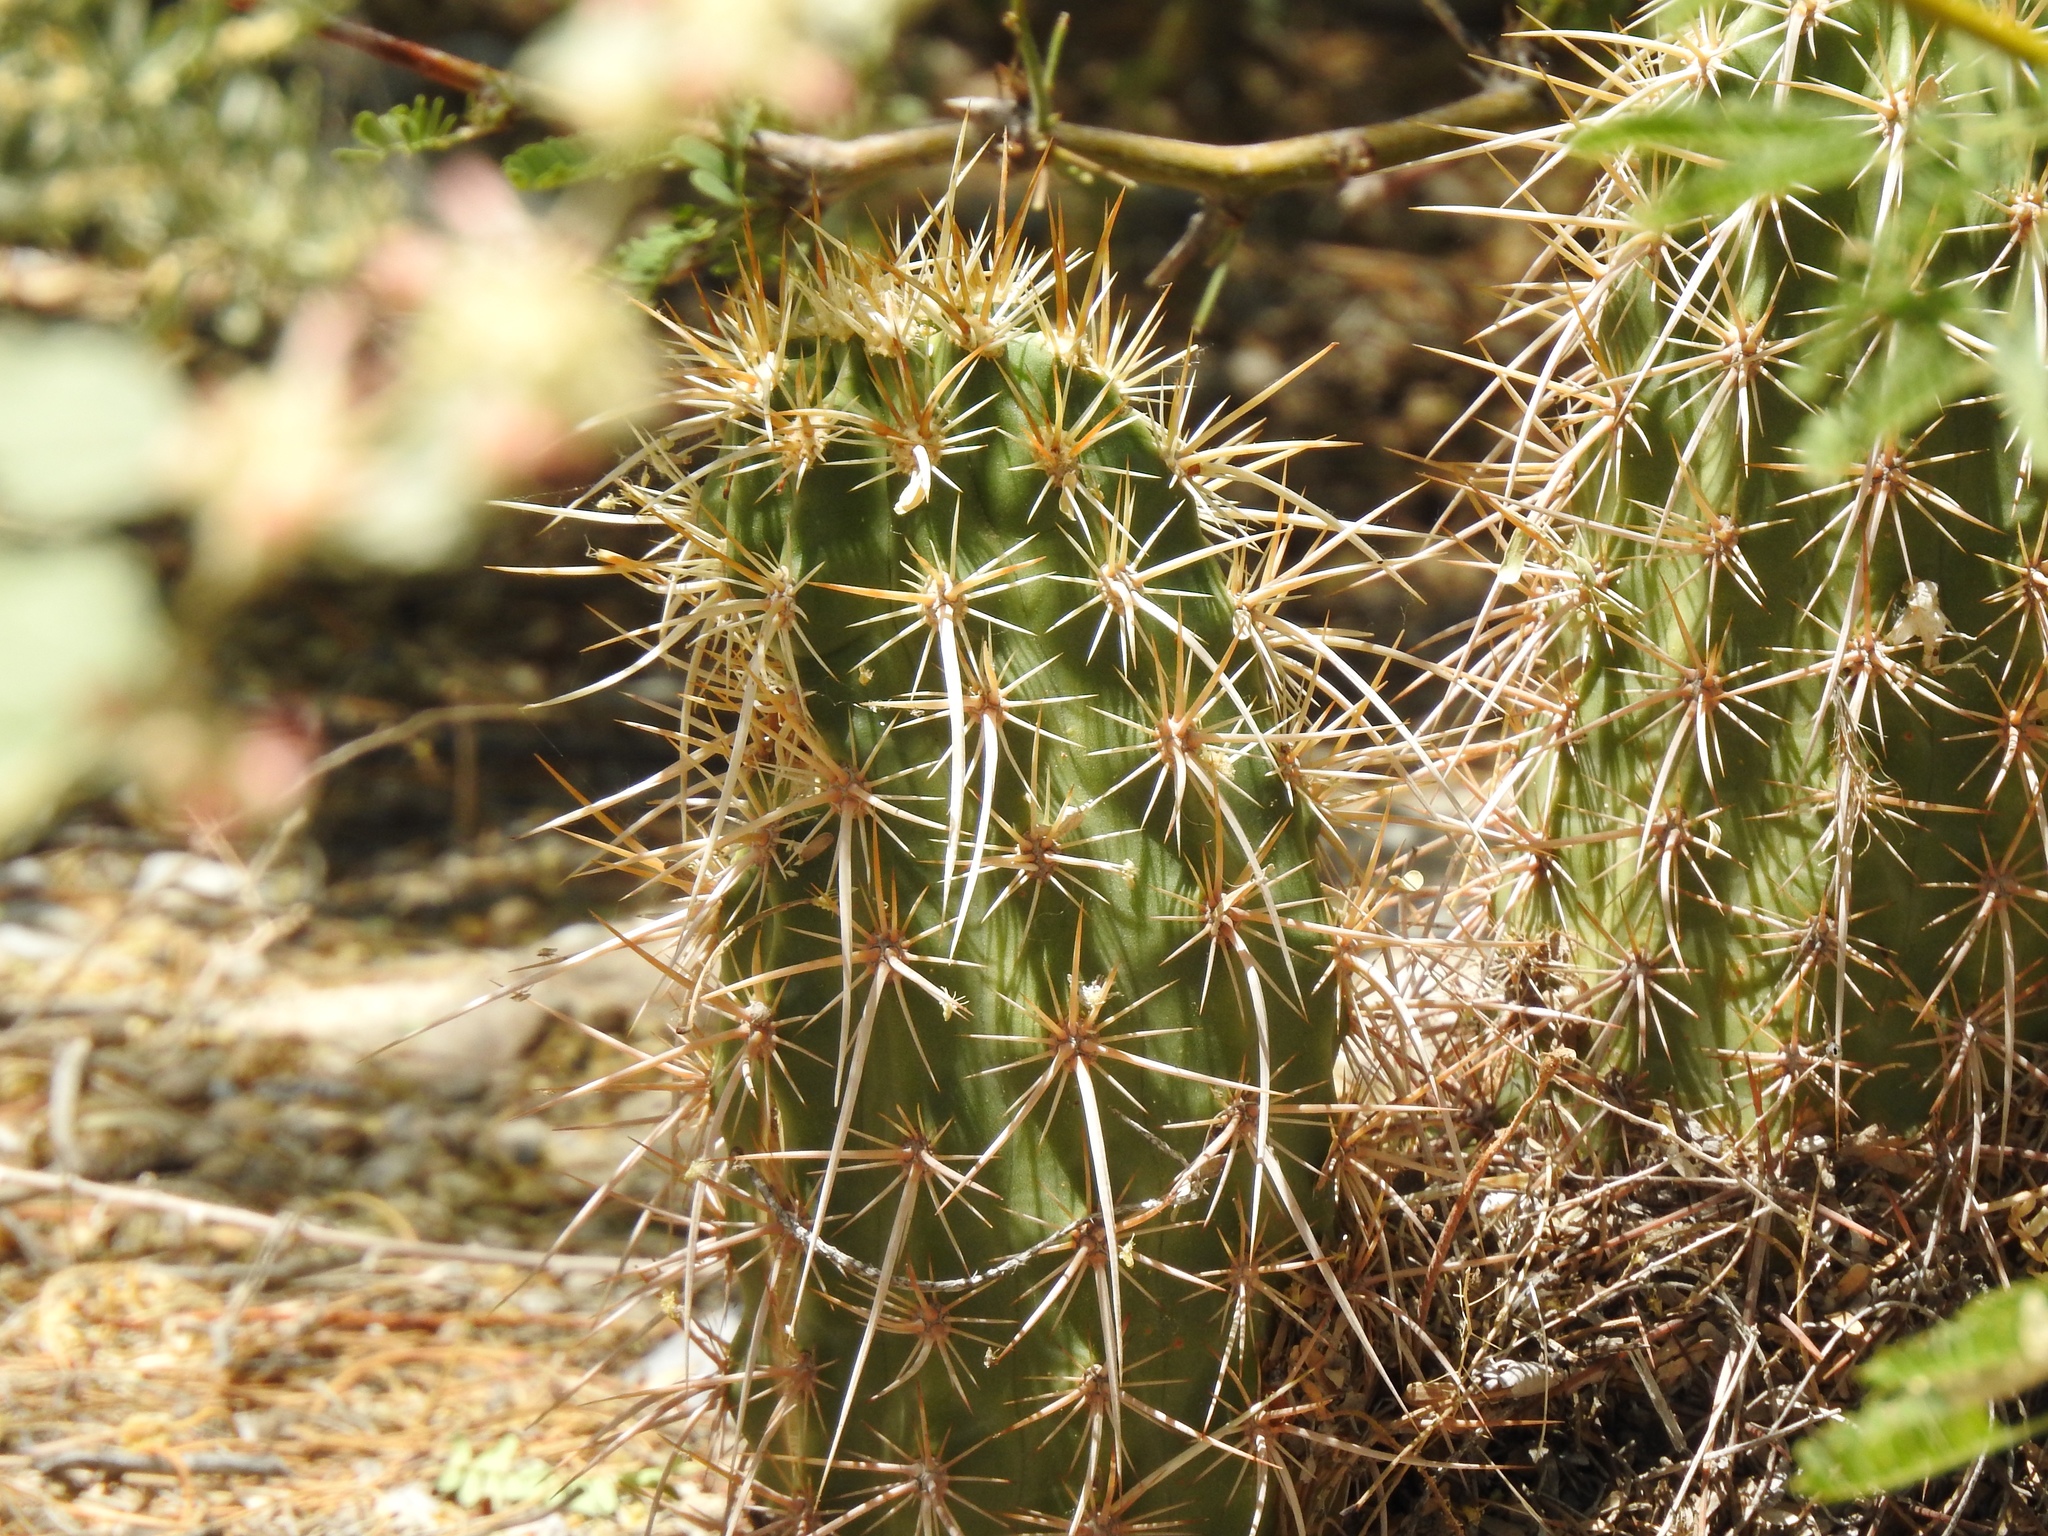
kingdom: Plantae
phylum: Tracheophyta
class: Magnoliopsida
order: Caryophyllales
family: Cactaceae
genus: Echinocereus
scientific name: Echinocereus engelmannii
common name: Engelmann's hedgehog cactus
